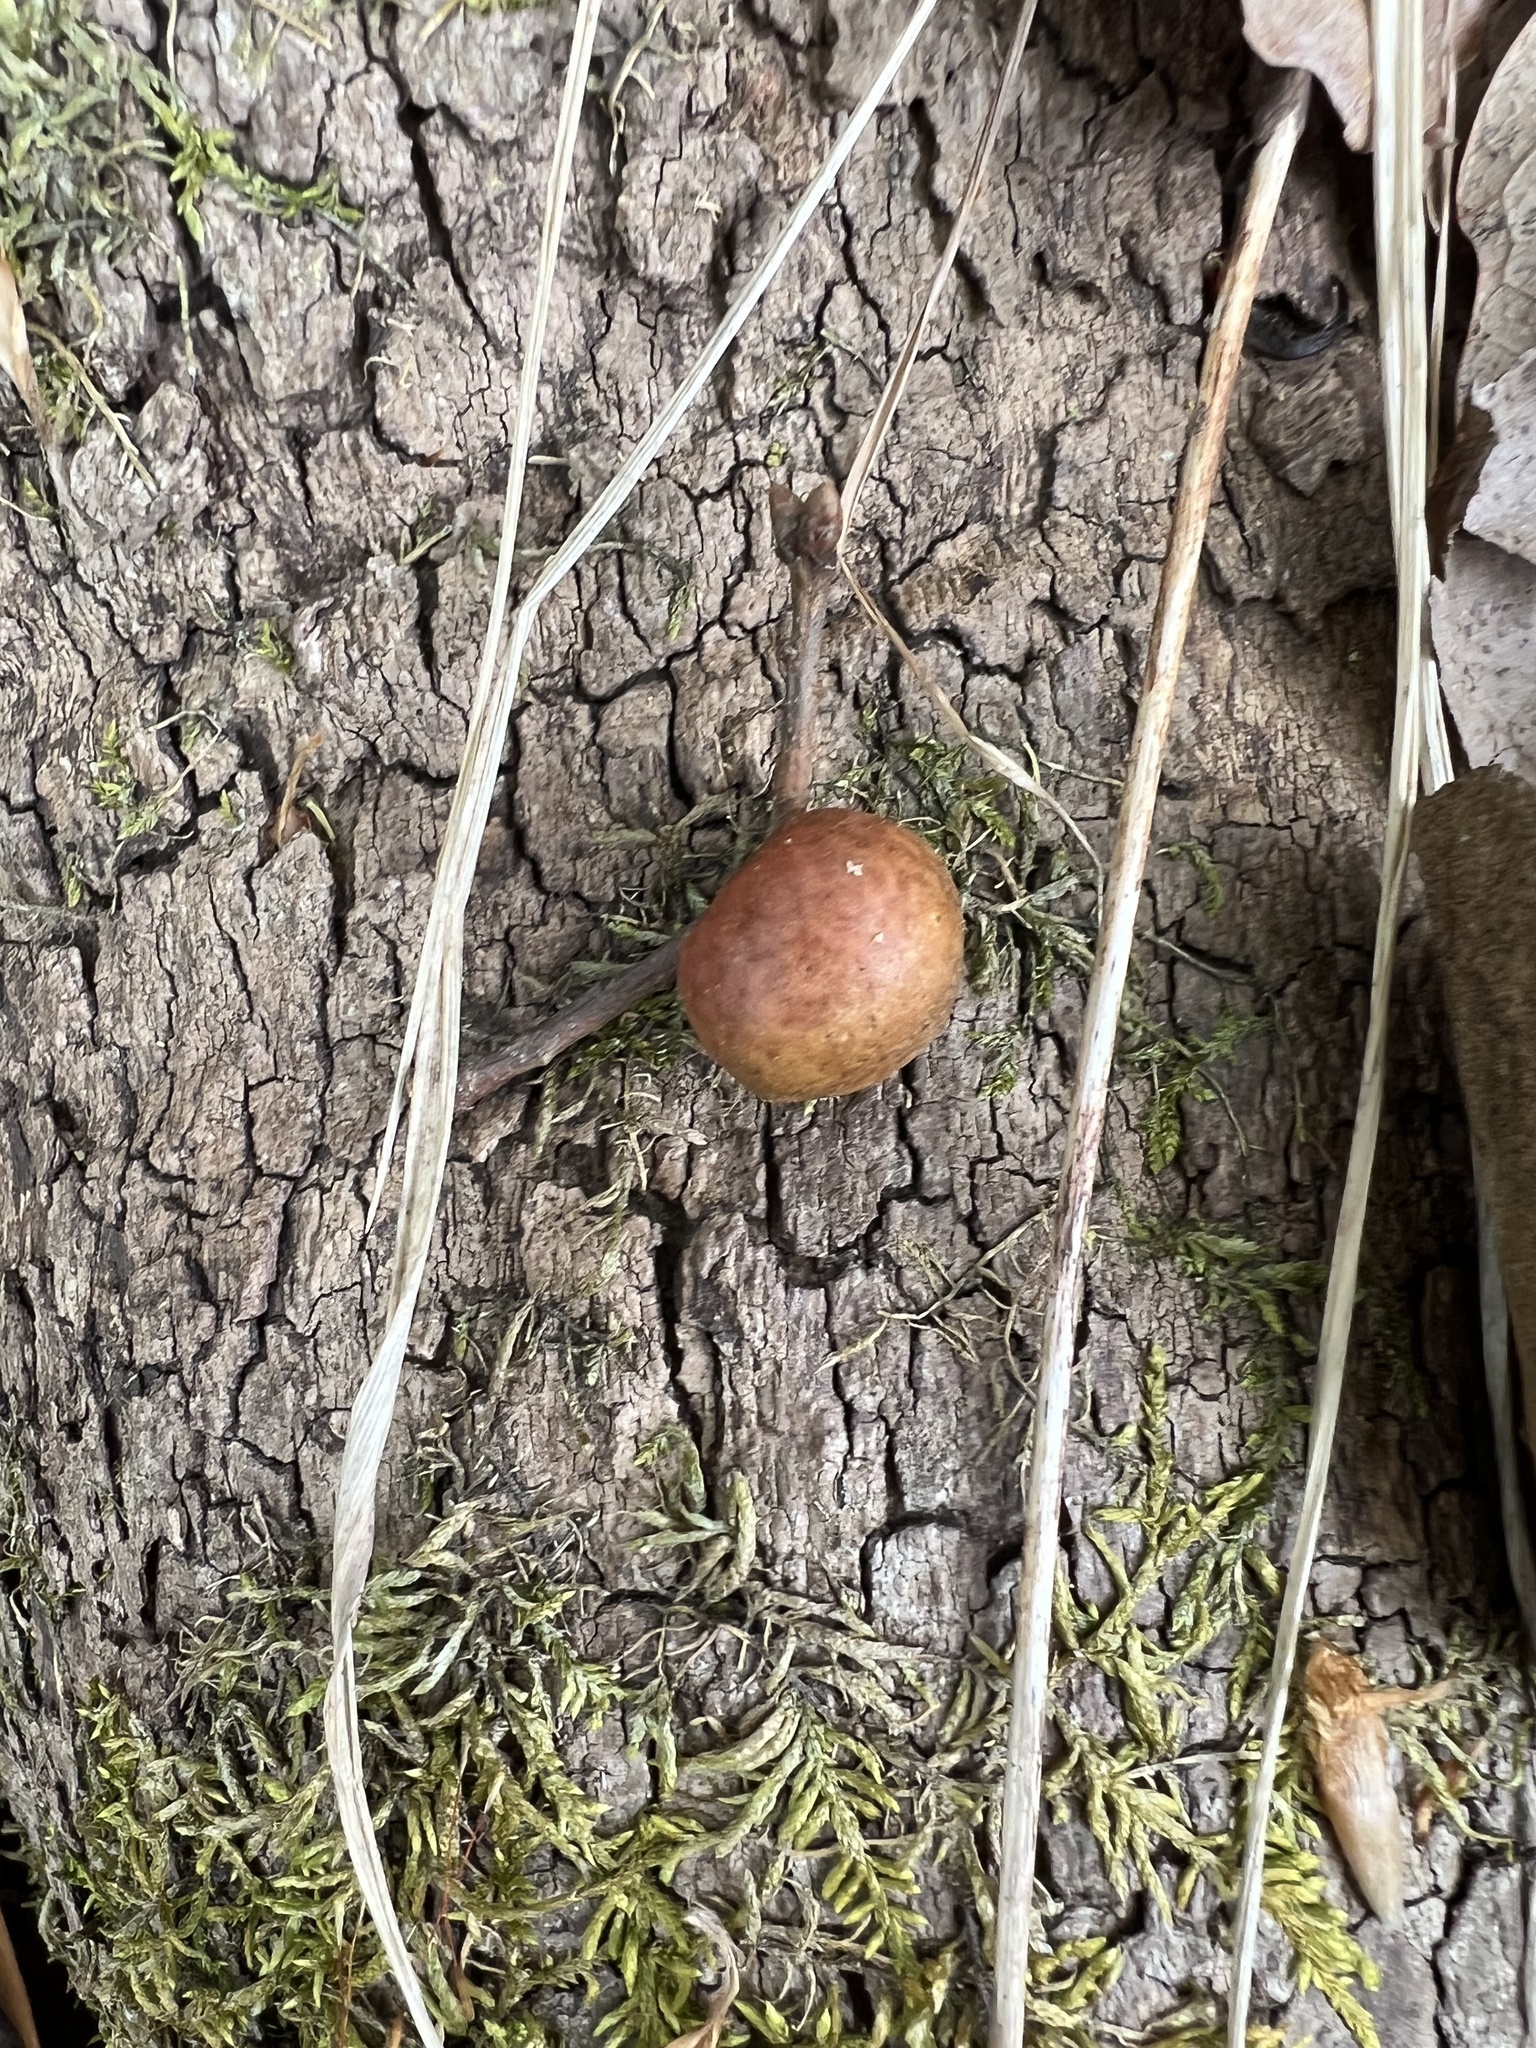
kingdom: Animalia
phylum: Arthropoda
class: Insecta
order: Hymenoptera
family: Cynipidae
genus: Disholcaspis
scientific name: Disholcaspis quercusglobulus
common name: Round bullet gall wasp
